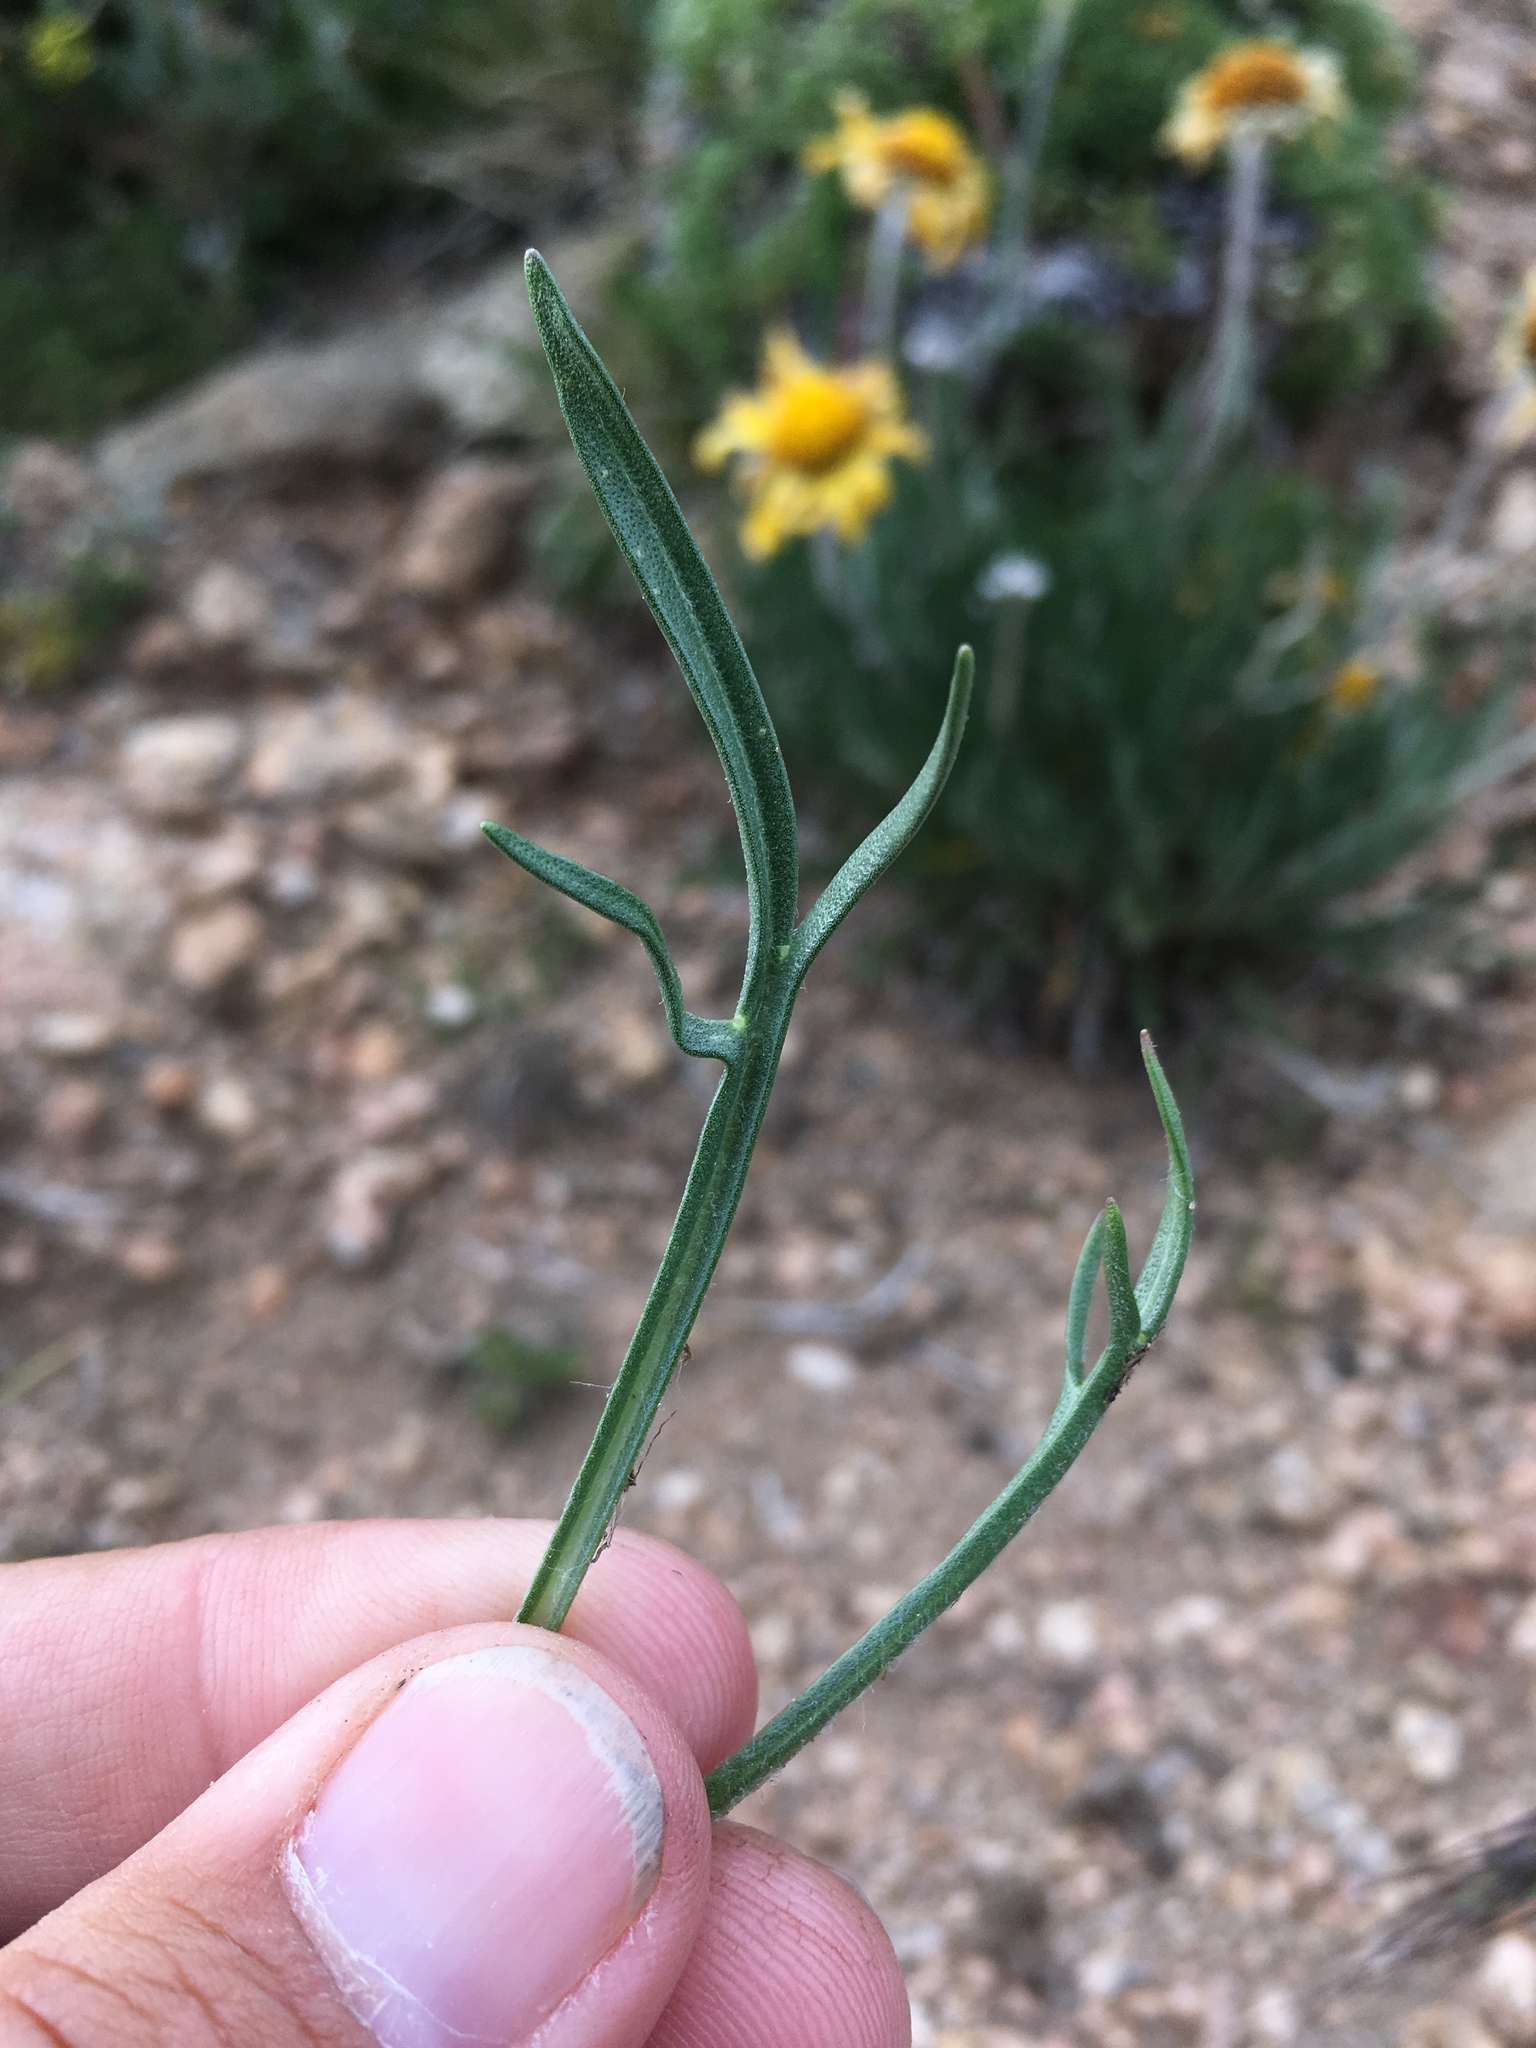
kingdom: Plantae
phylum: Tracheophyta
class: Magnoliopsida
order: Asterales
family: Asteraceae
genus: Hymenoxys
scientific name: Hymenoxys brandegeei
